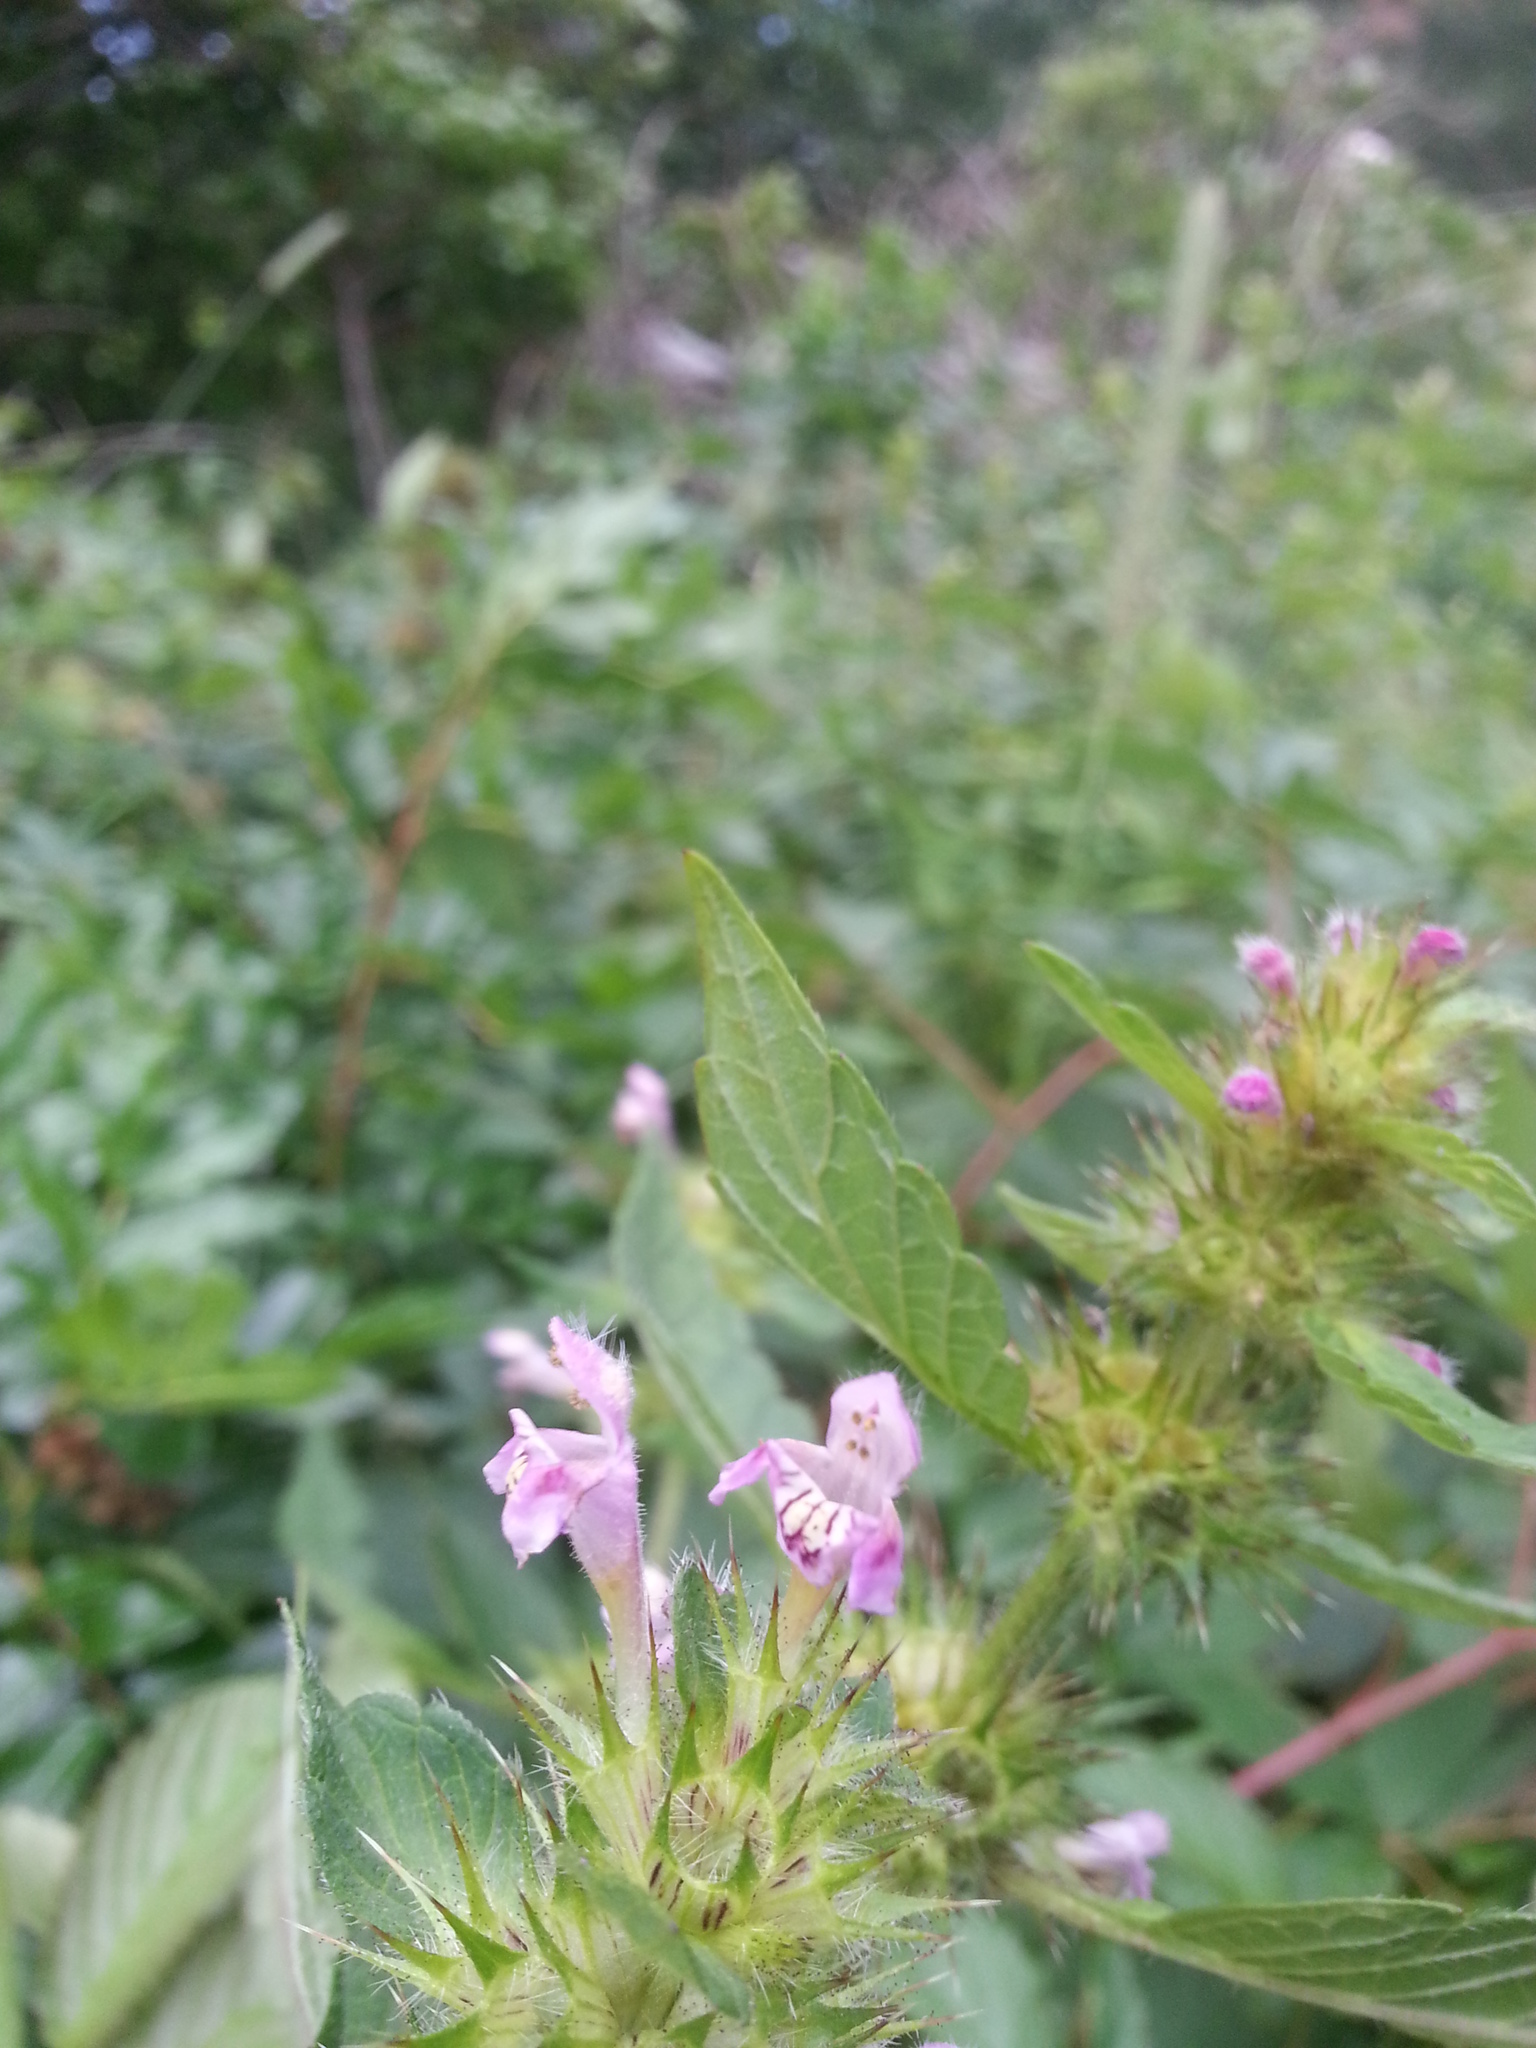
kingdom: Plantae
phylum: Tracheophyta
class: Magnoliopsida
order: Lamiales
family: Lamiaceae
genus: Galeopsis
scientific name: Galeopsis tetrahit
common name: Common hemp-nettle
